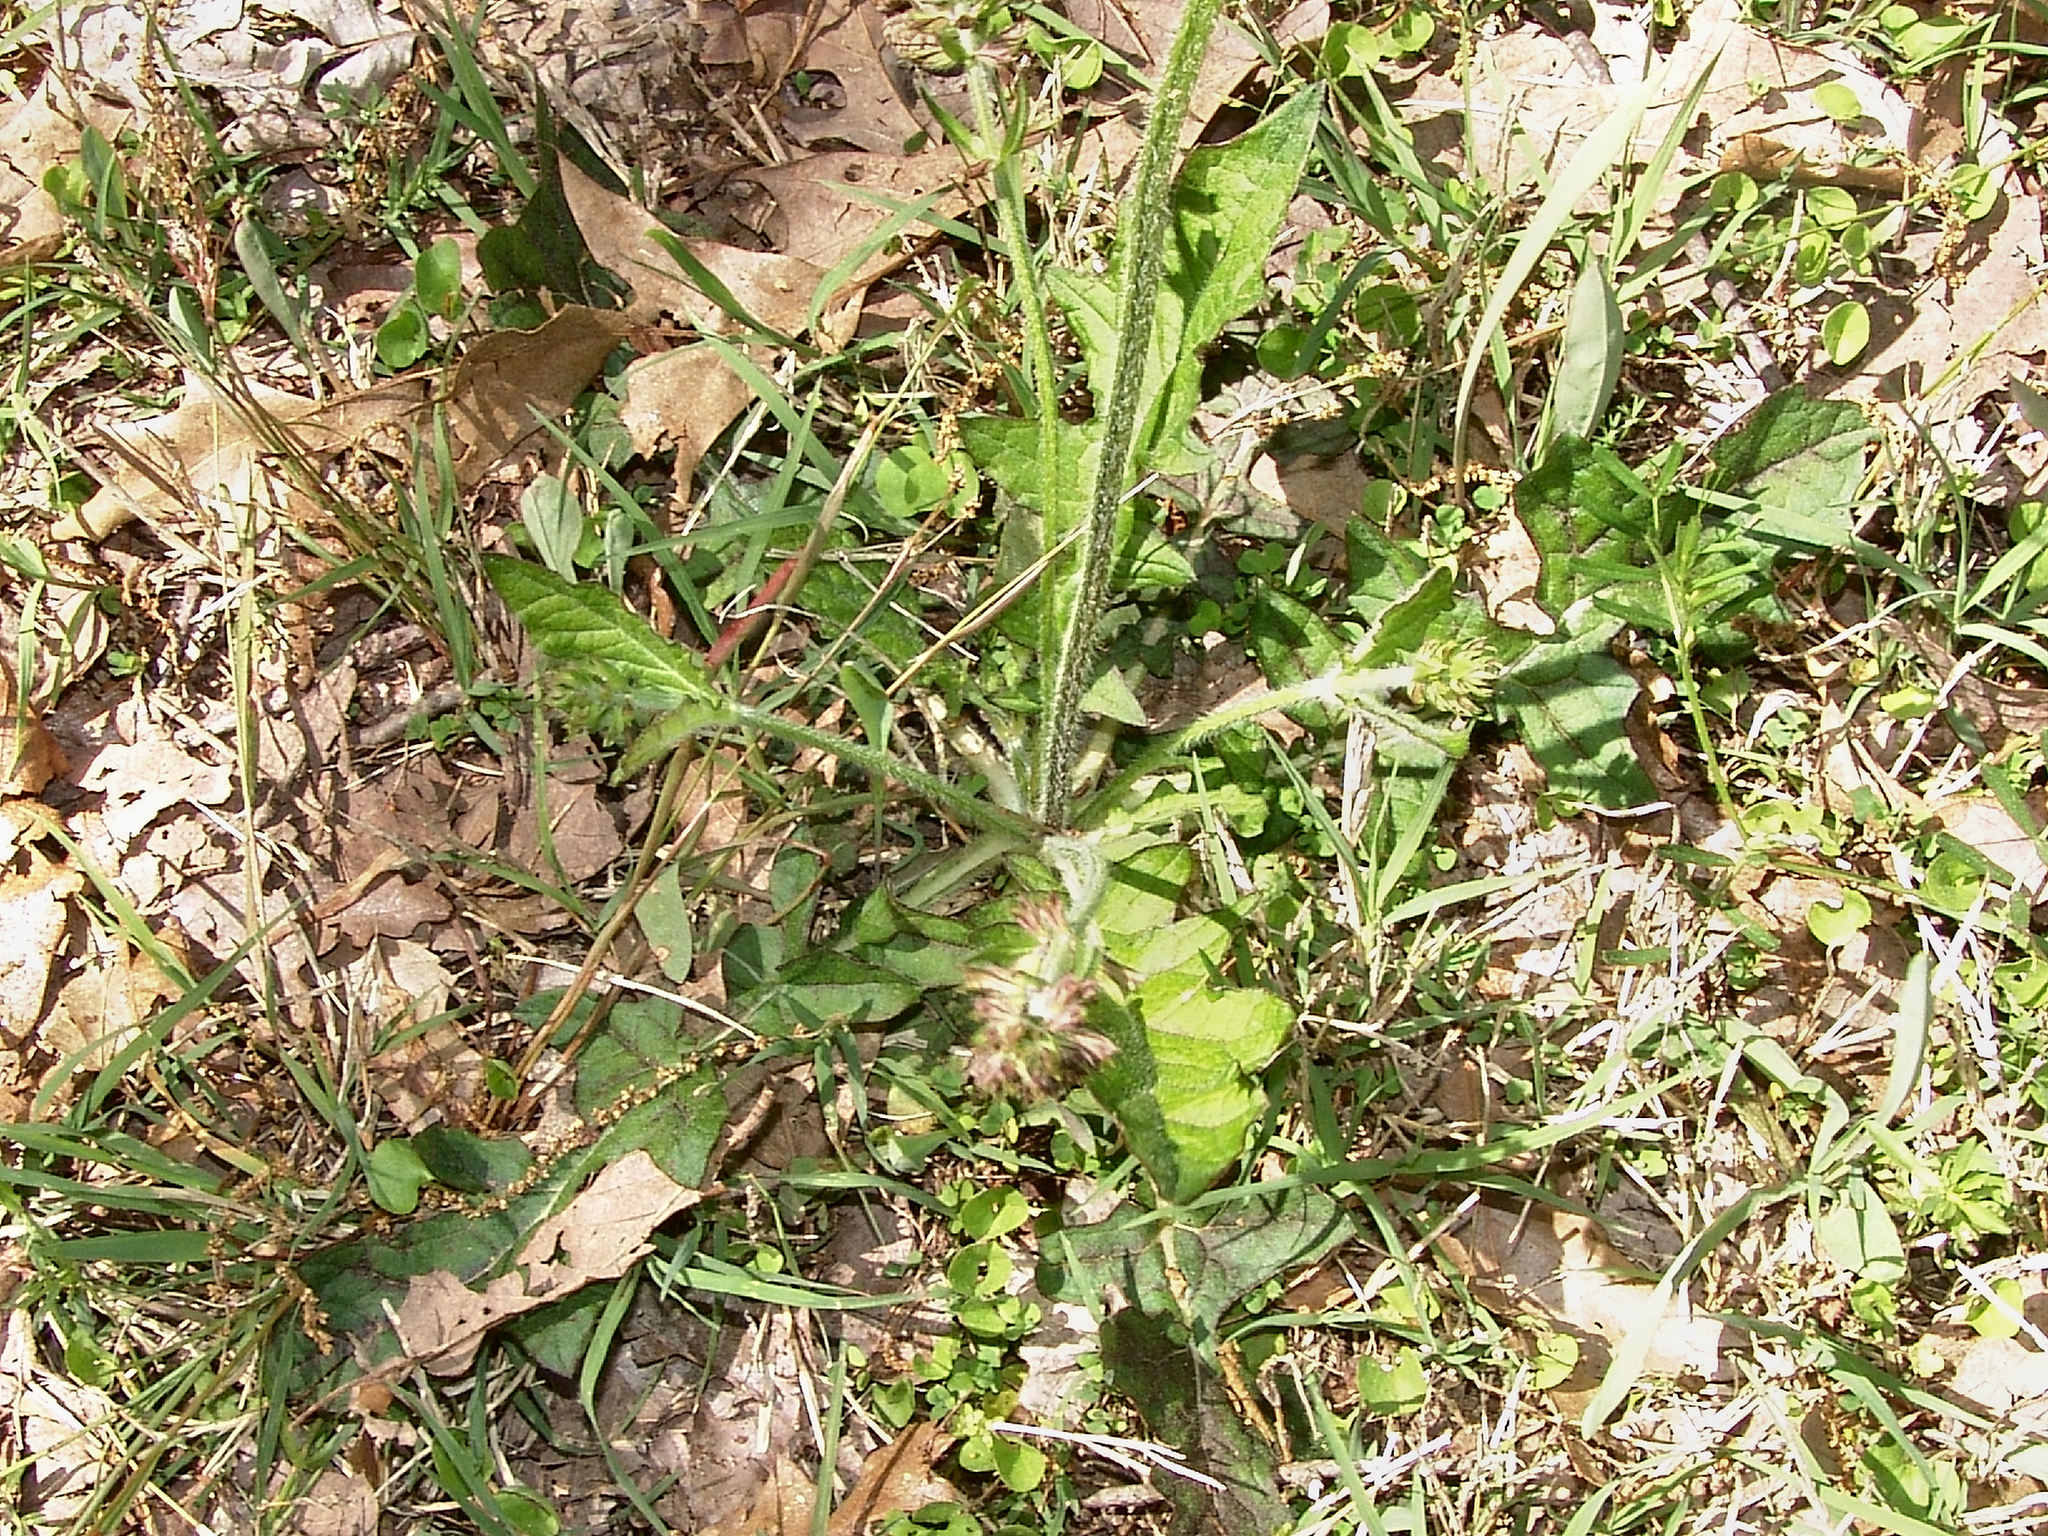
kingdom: Plantae
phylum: Tracheophyta
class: Magnoliopsida
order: Lamiales
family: Lamiaceae
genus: Salvia
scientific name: Salvia lyrata
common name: Cancerweed
